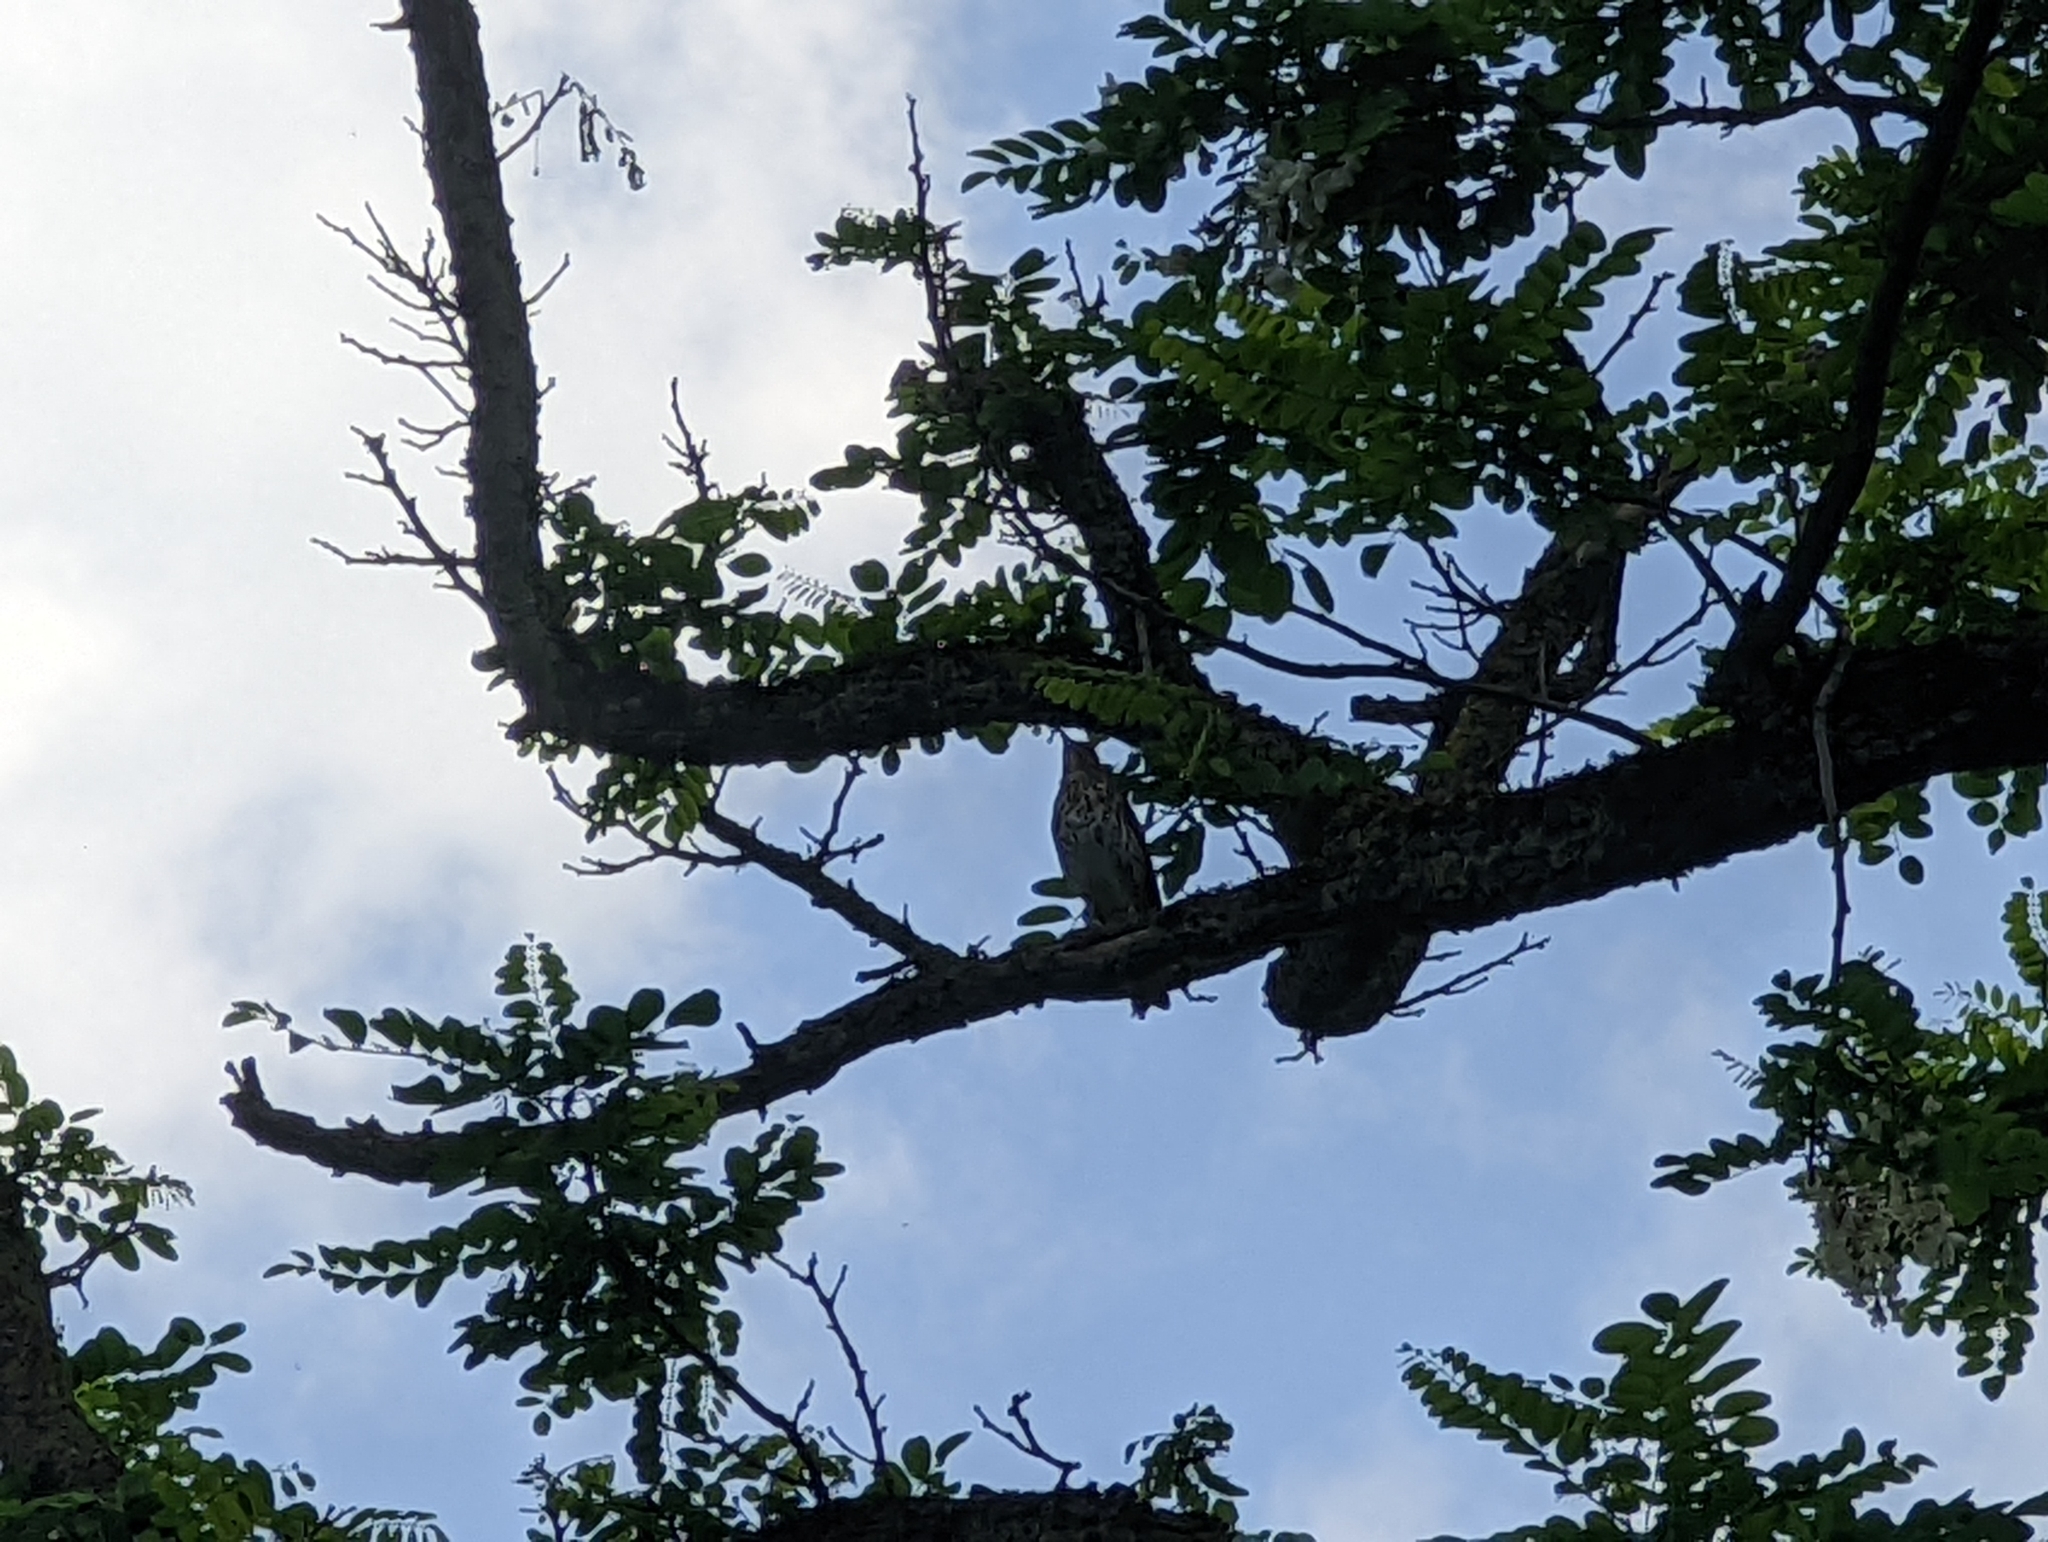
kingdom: Animalia
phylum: Chordata
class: Aves
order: Passeriformes
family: Turdidae
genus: Turdus
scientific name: Turdus philomelos
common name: Song thrush
